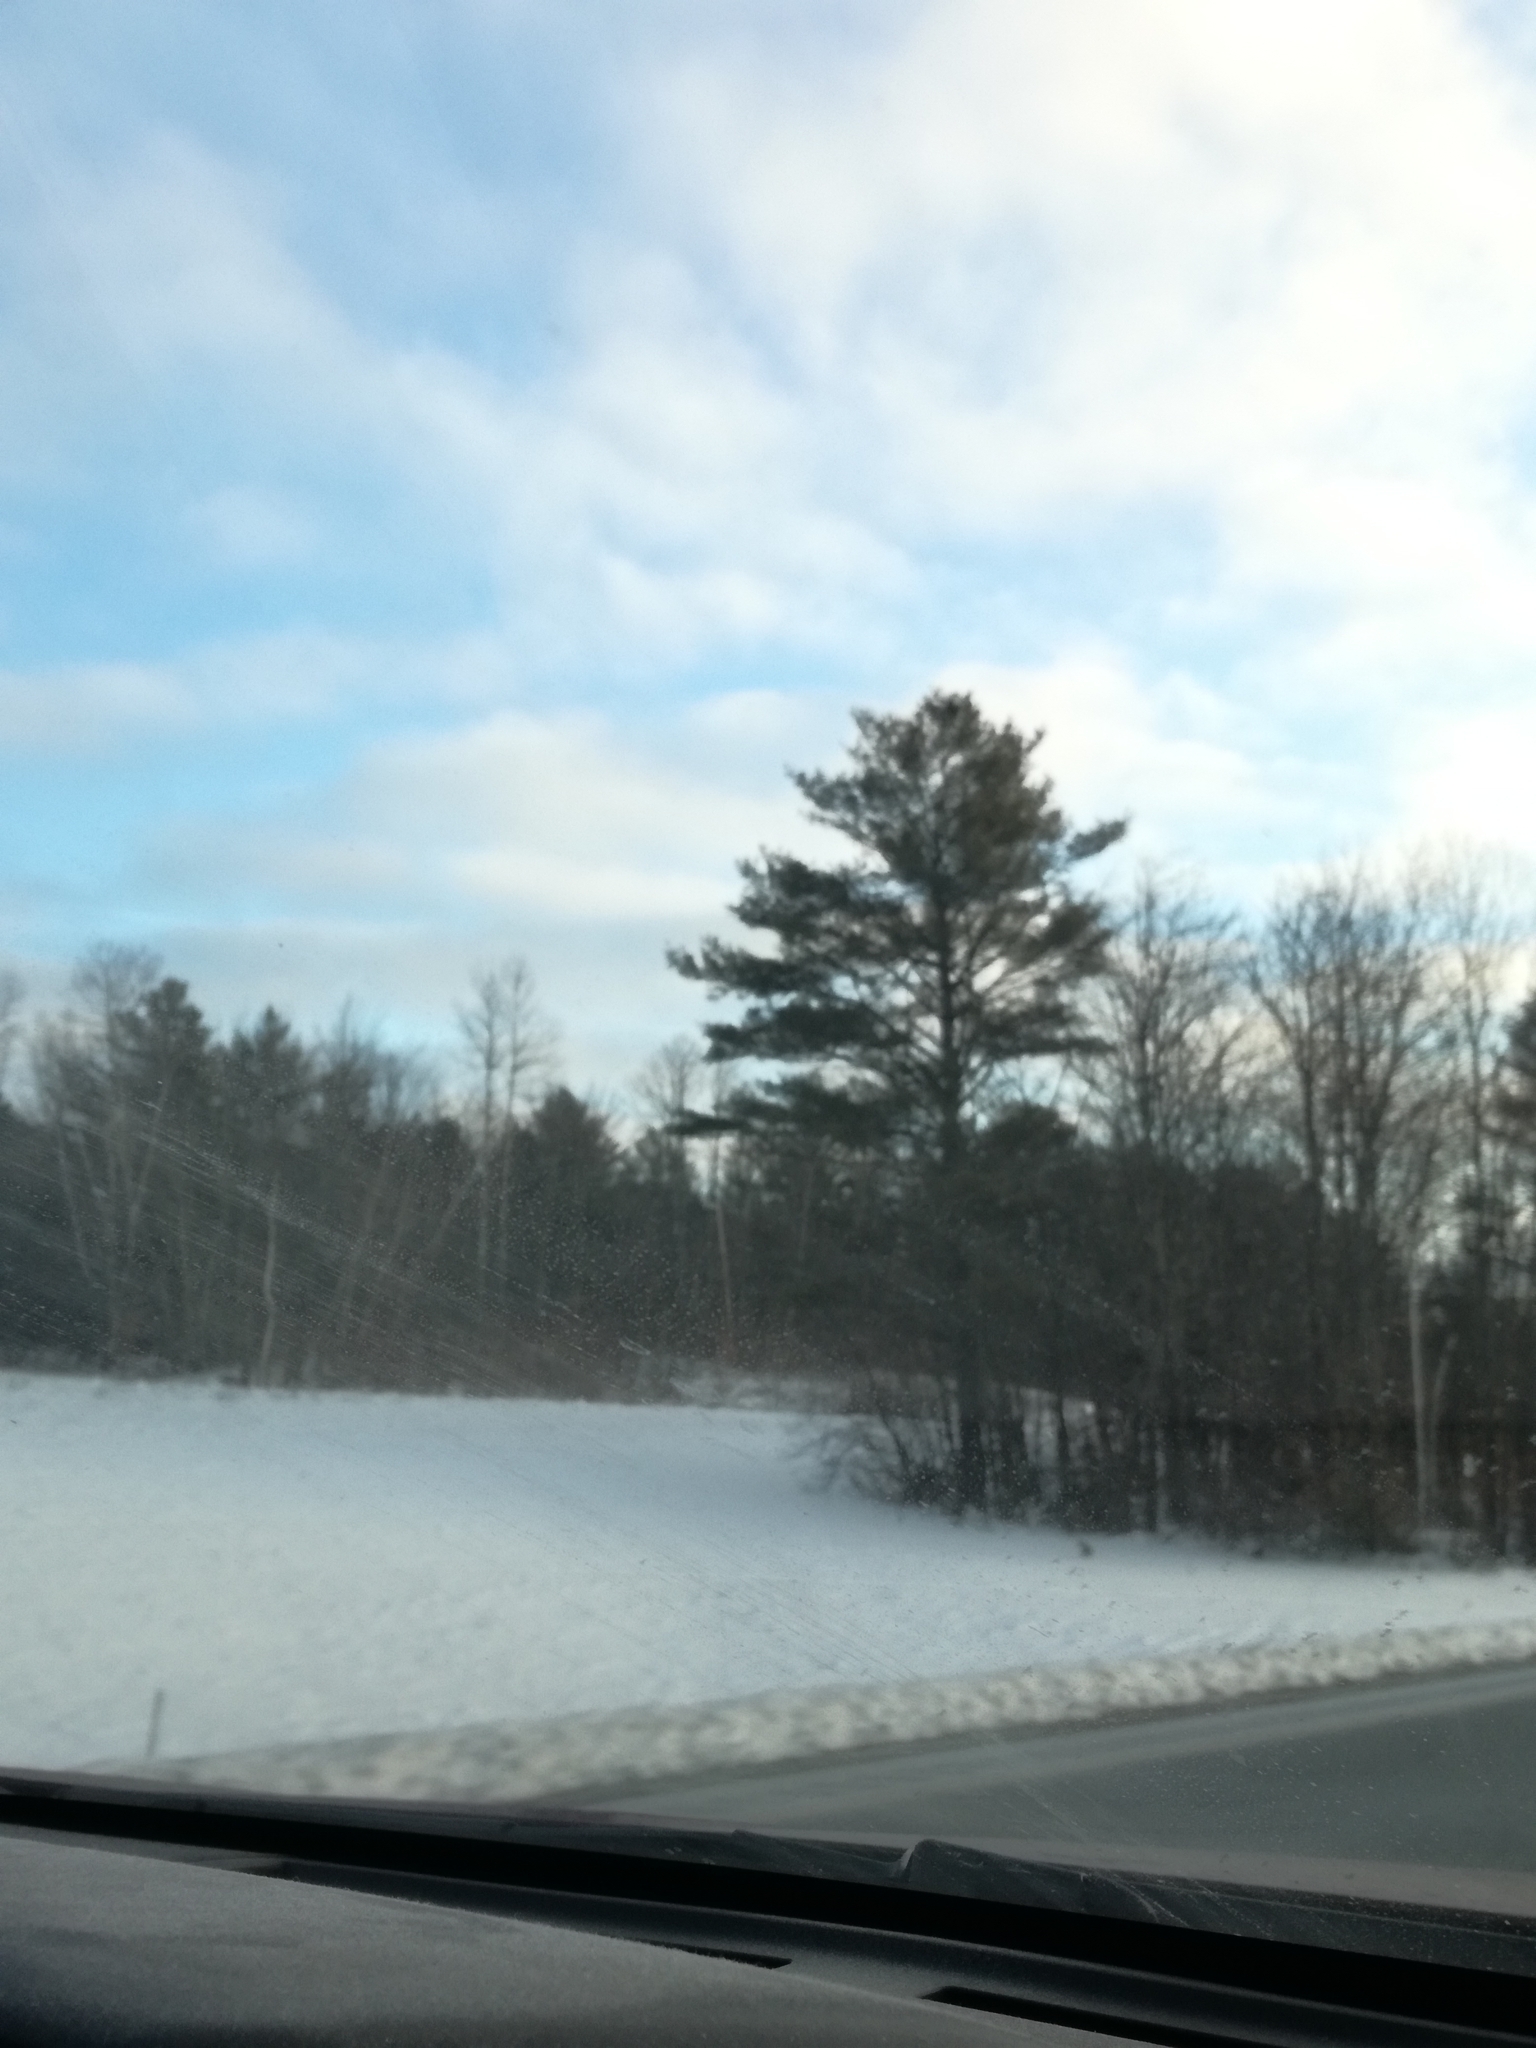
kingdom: Plantae
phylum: Tracheophyta
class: Pinopsida
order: Pinales
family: Pinaceae
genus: Pinus
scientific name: Pinus strobus
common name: Weymouth pine
